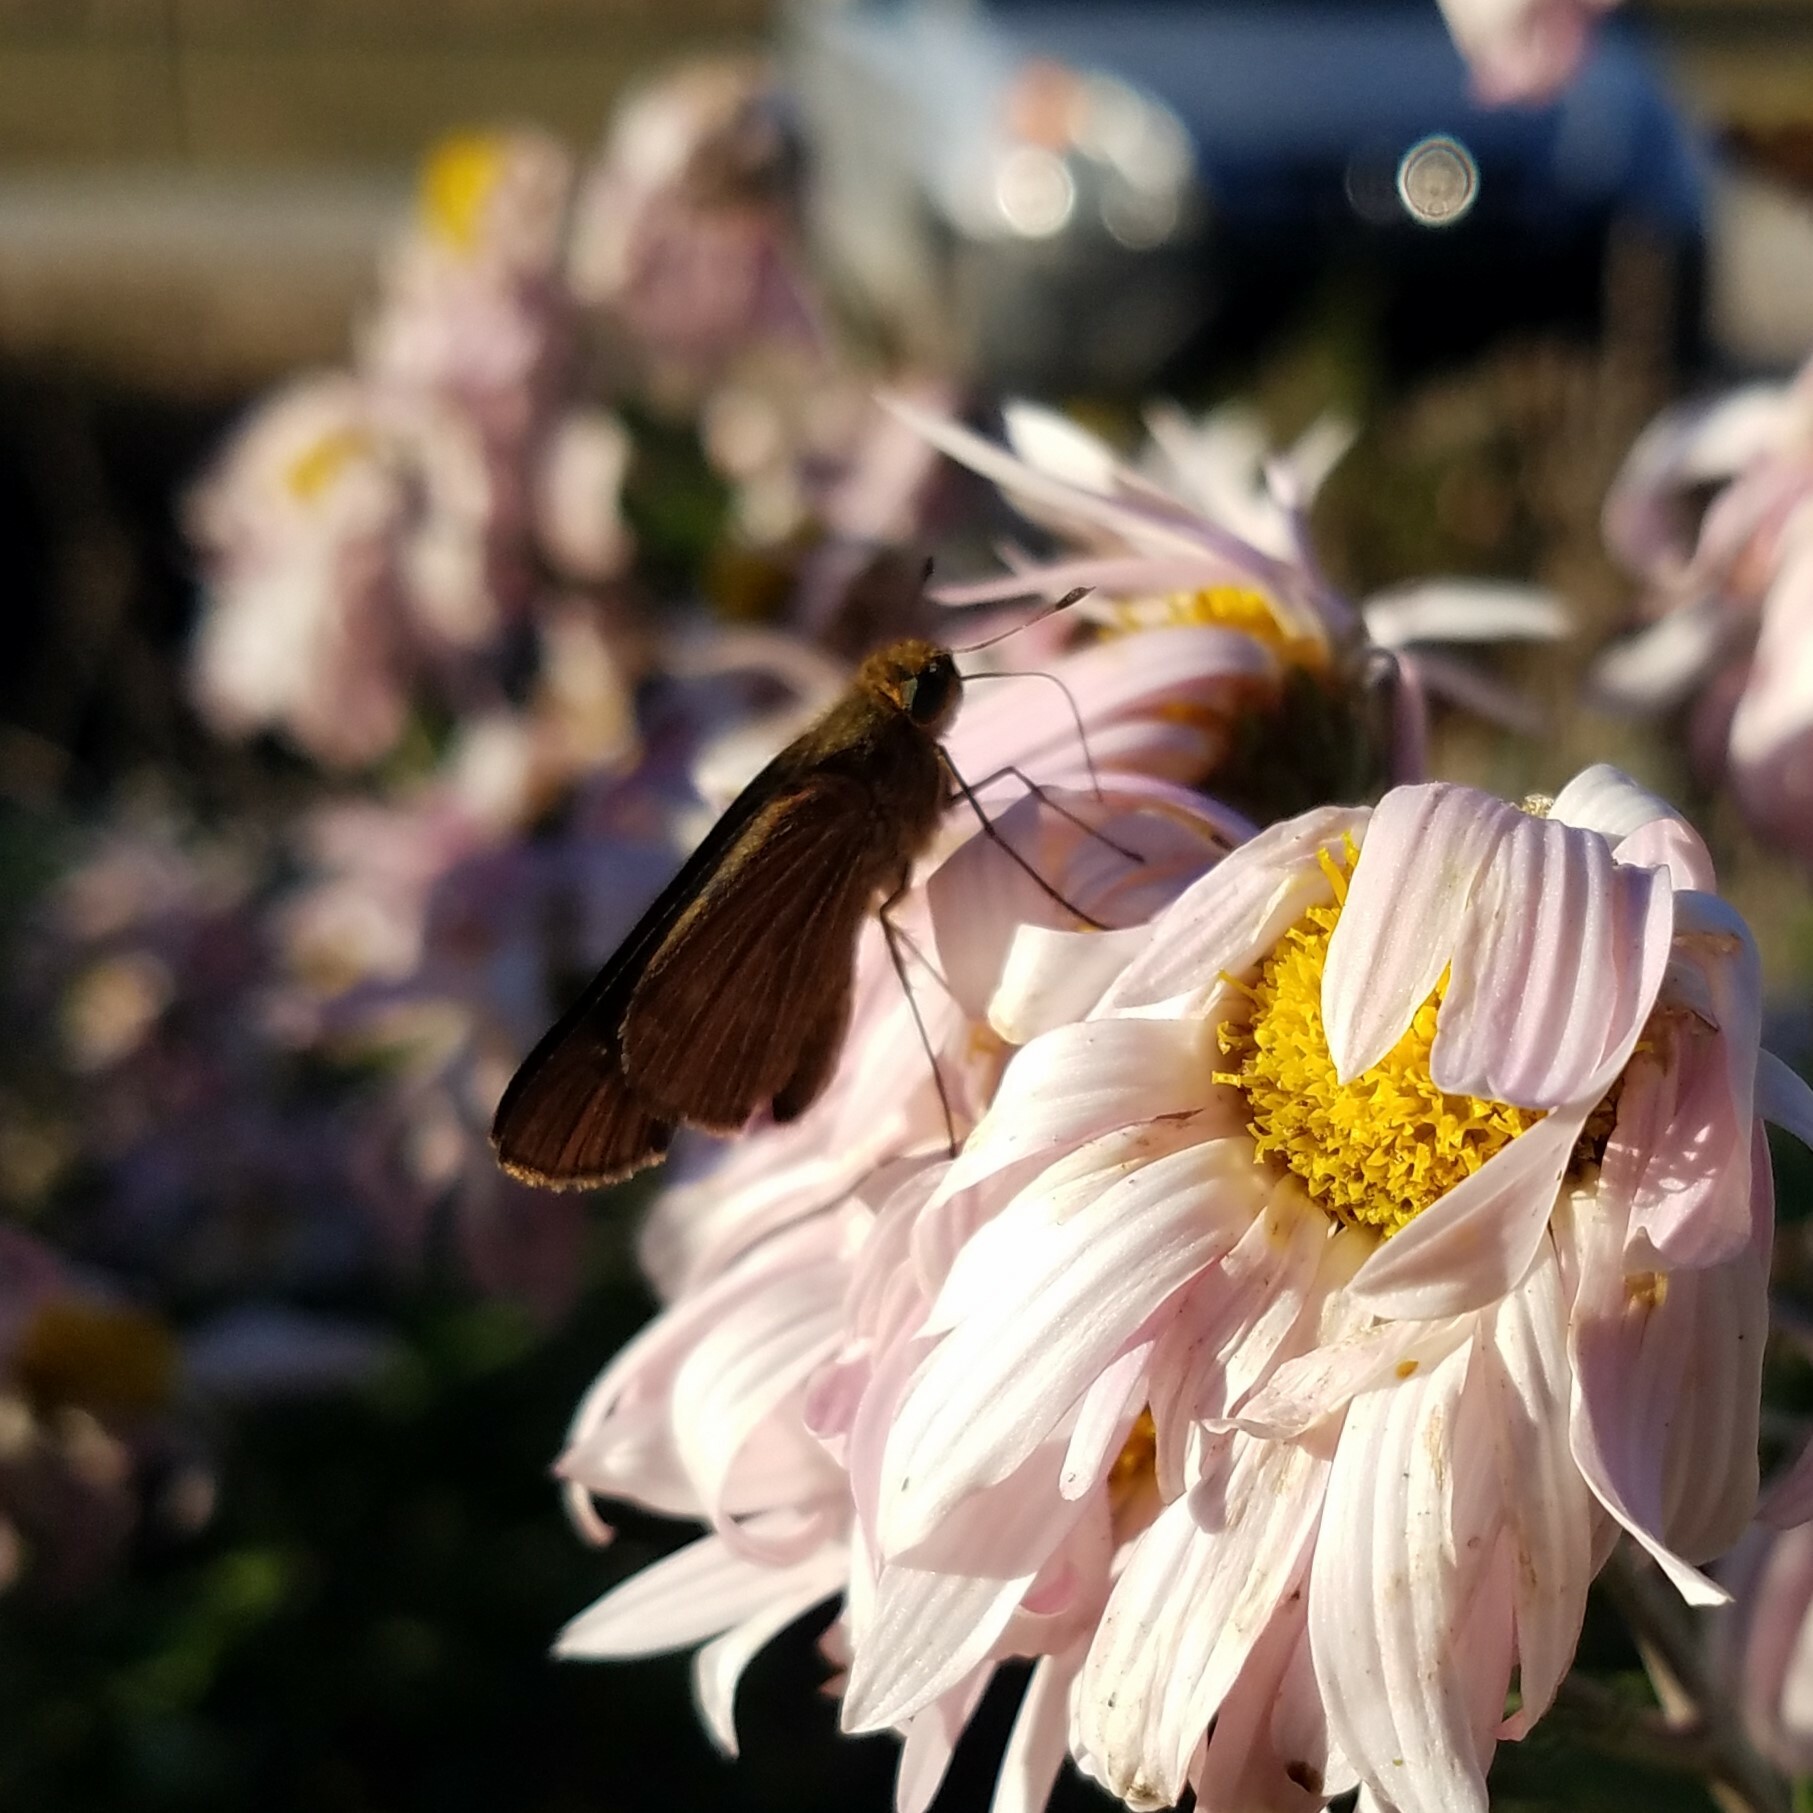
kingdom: Animalia
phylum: Arthropoda
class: Insecta
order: Lepidoptera
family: Hesperiidae
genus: Panoquina
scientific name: Panoquina ocola
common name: Ocola skipper
